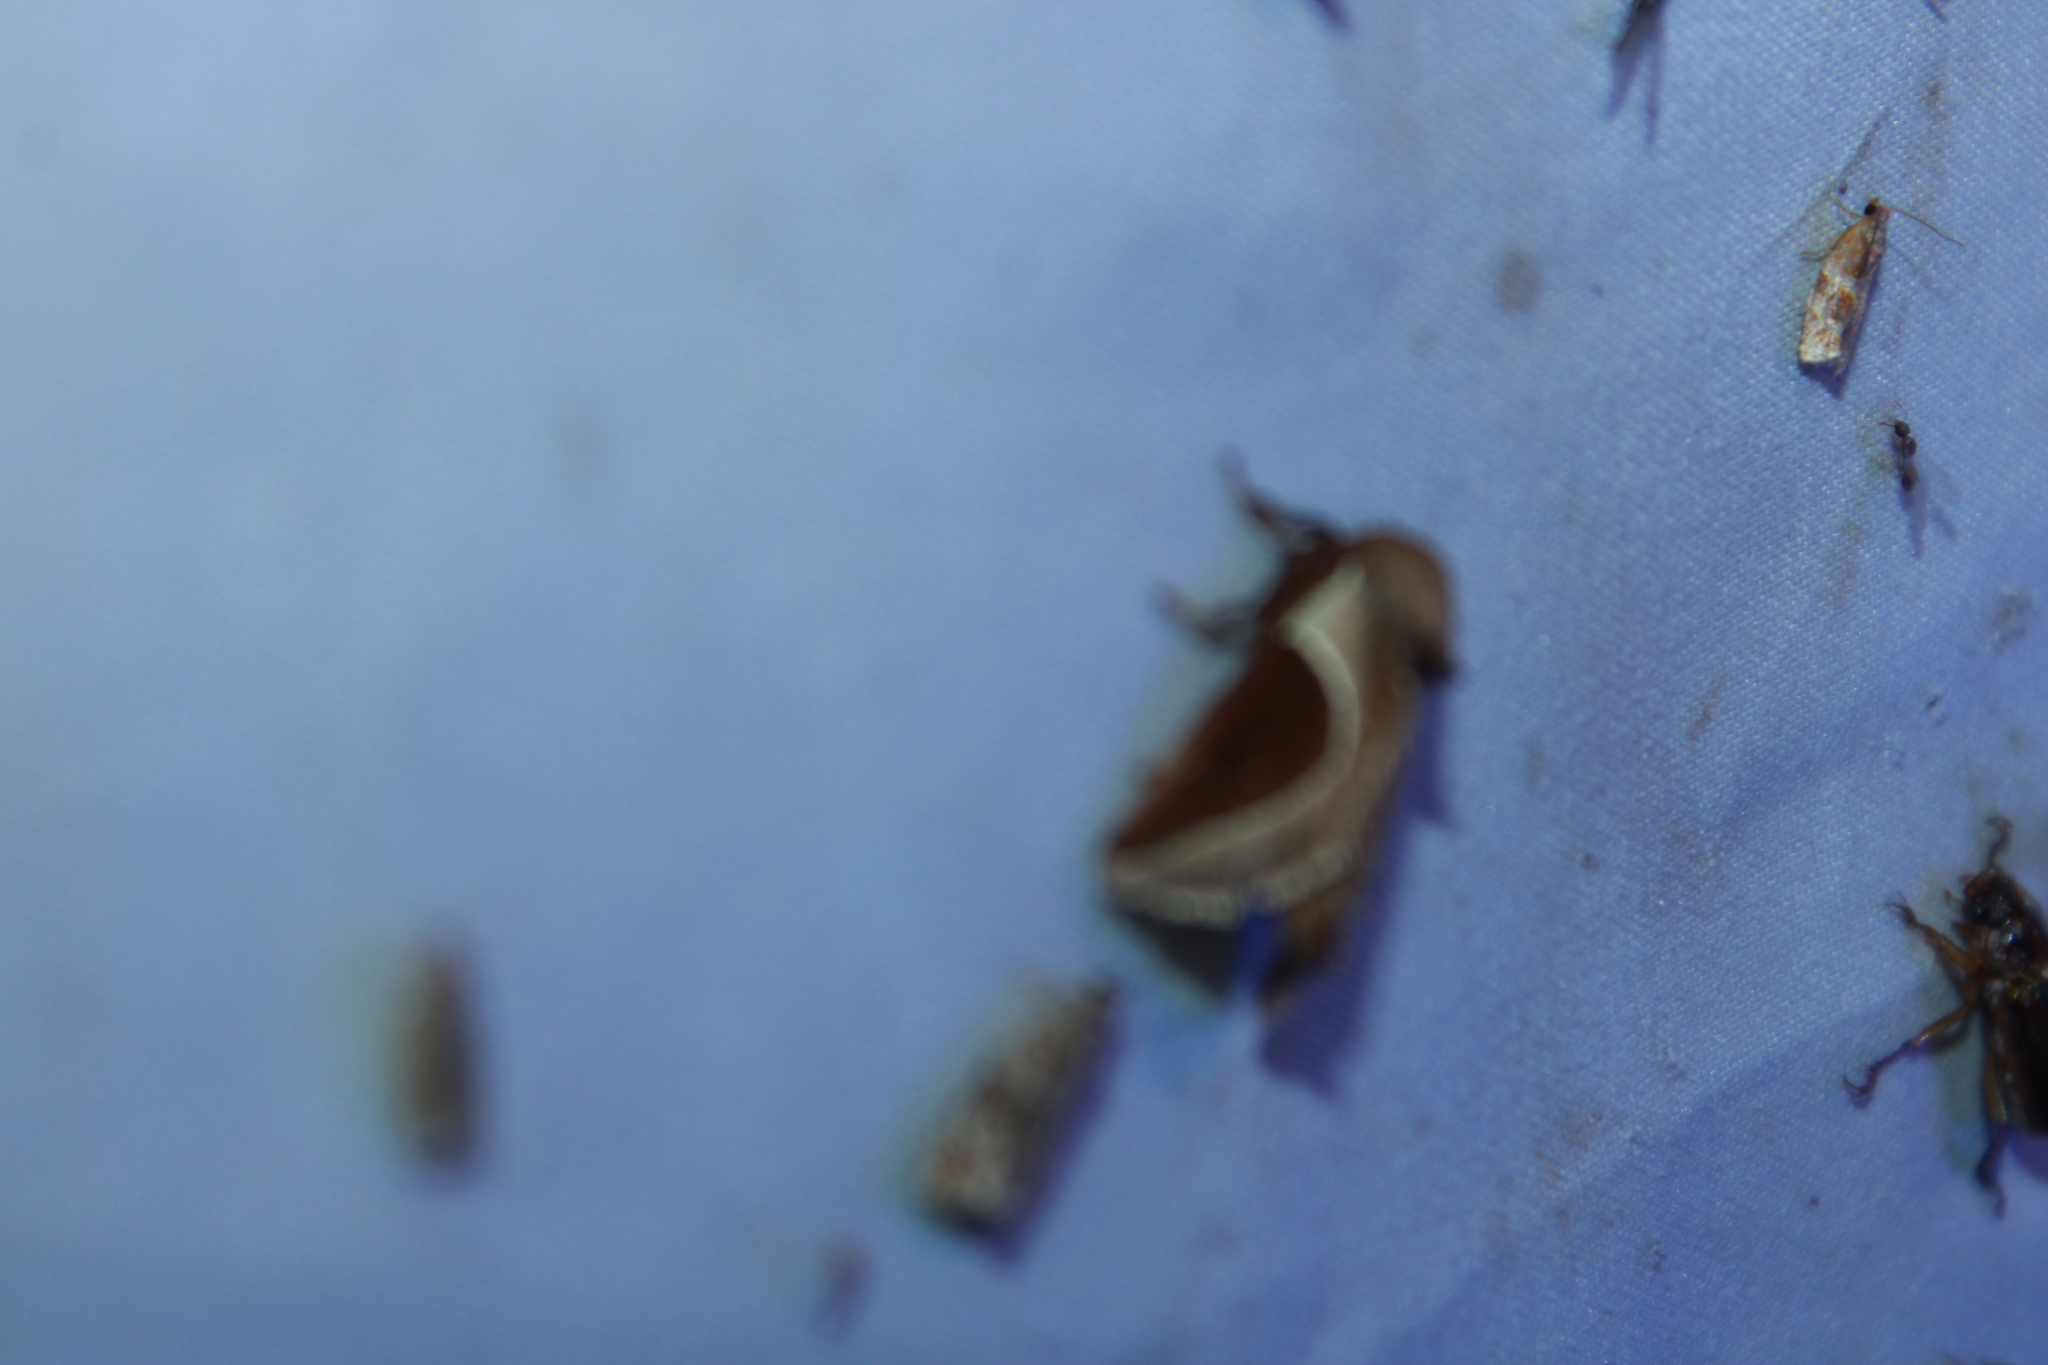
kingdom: Animalia
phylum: Arthropoda
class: Insecta
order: Lepidoptera
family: Limacodidae
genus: Prolimacodes
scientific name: Prolimacodes badia
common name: Skiff moth
